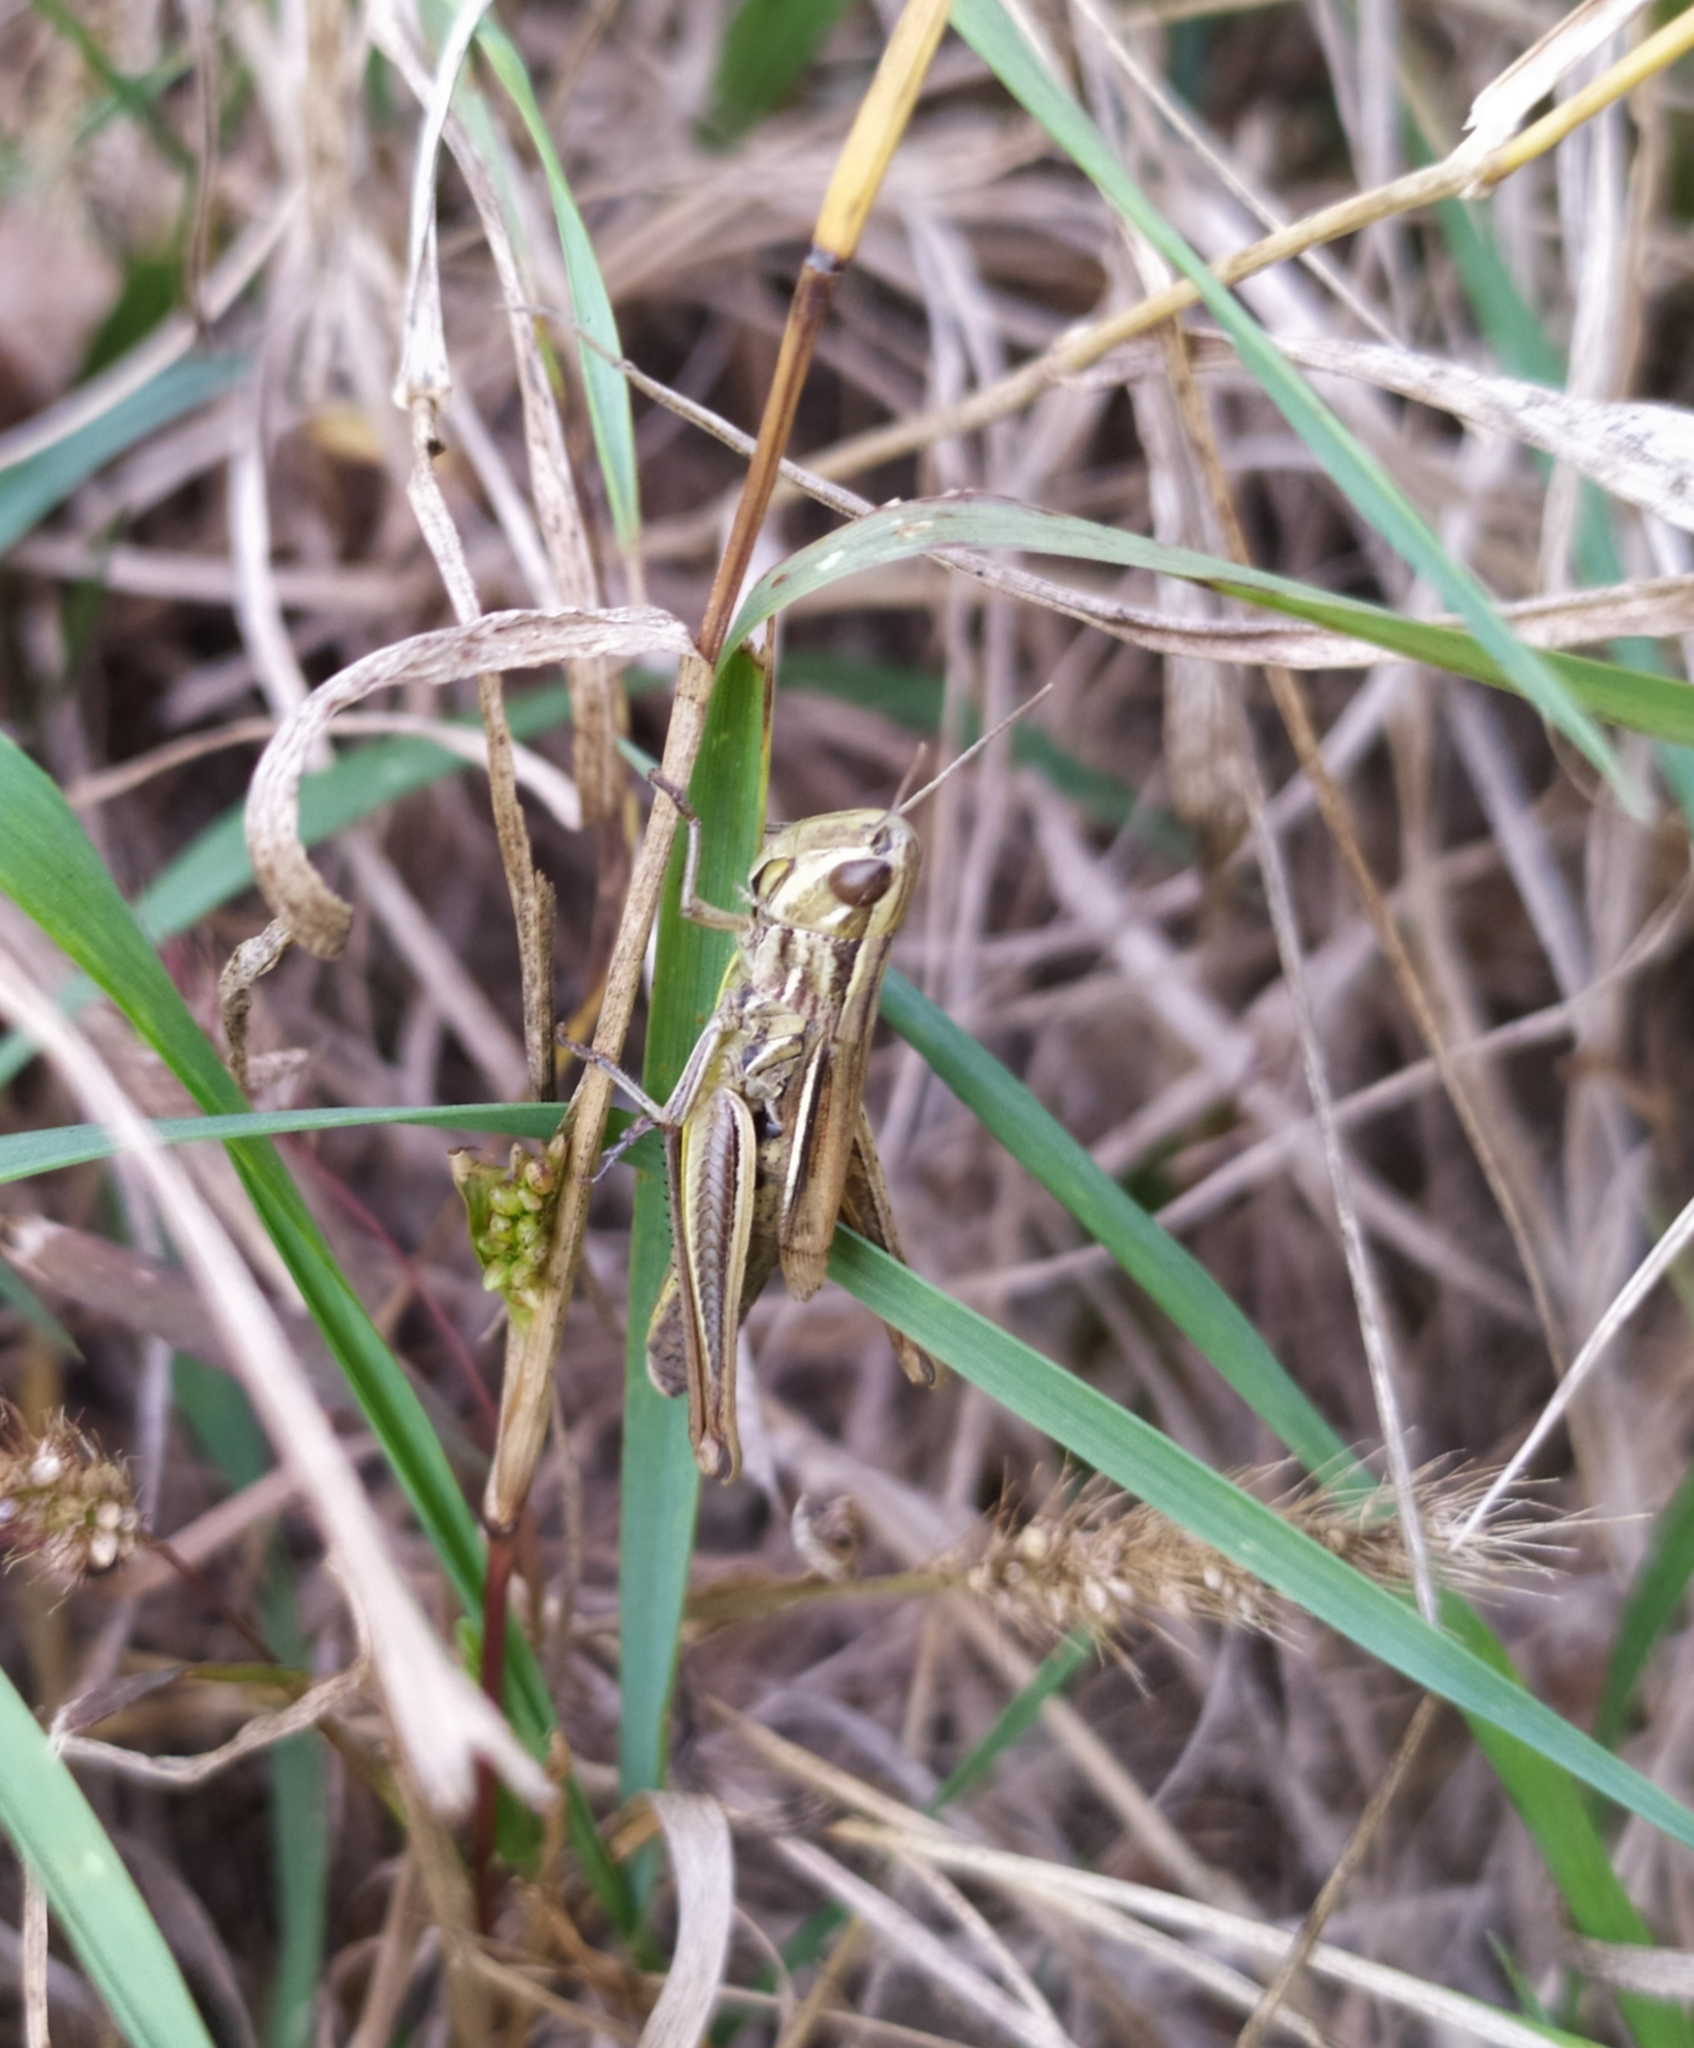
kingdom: Animalia
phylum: Arthropoda
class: Insecta
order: Orthoptera
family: Acrididae
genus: Euchorthippus
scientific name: Euchorthippus declivus
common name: Common straw grasshopper
